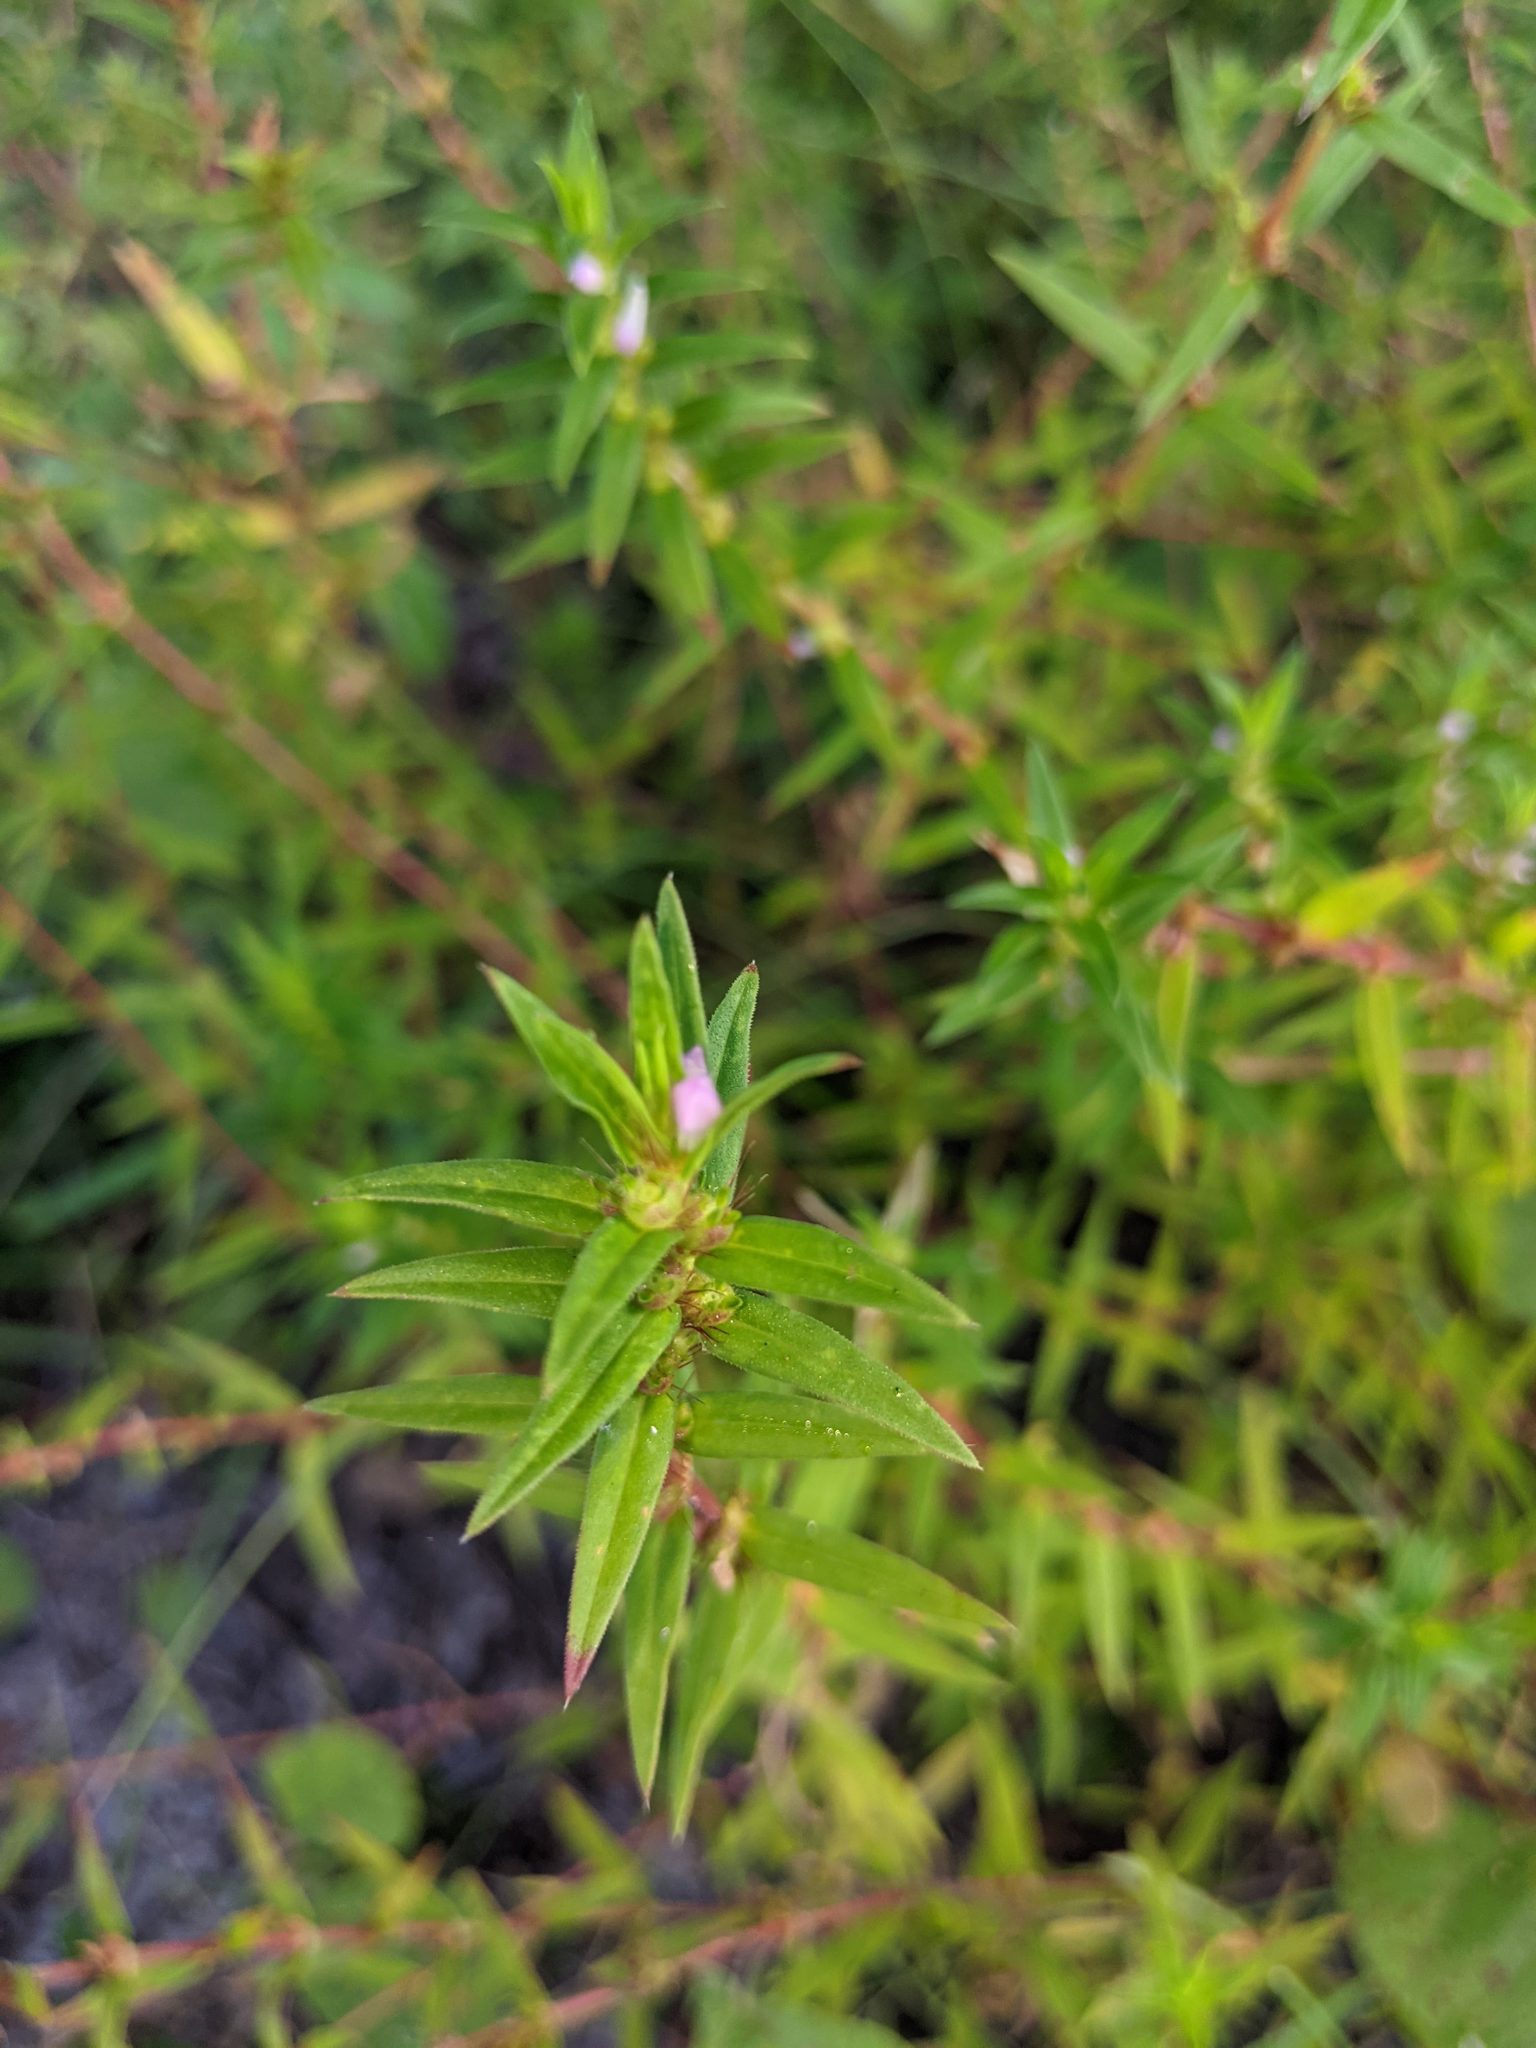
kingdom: Plantae
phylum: Tracheophyta
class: Magnoliopsida
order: Gentianales
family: Rubiaceae
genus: Hexasepalum
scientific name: Hexasepalum teres
